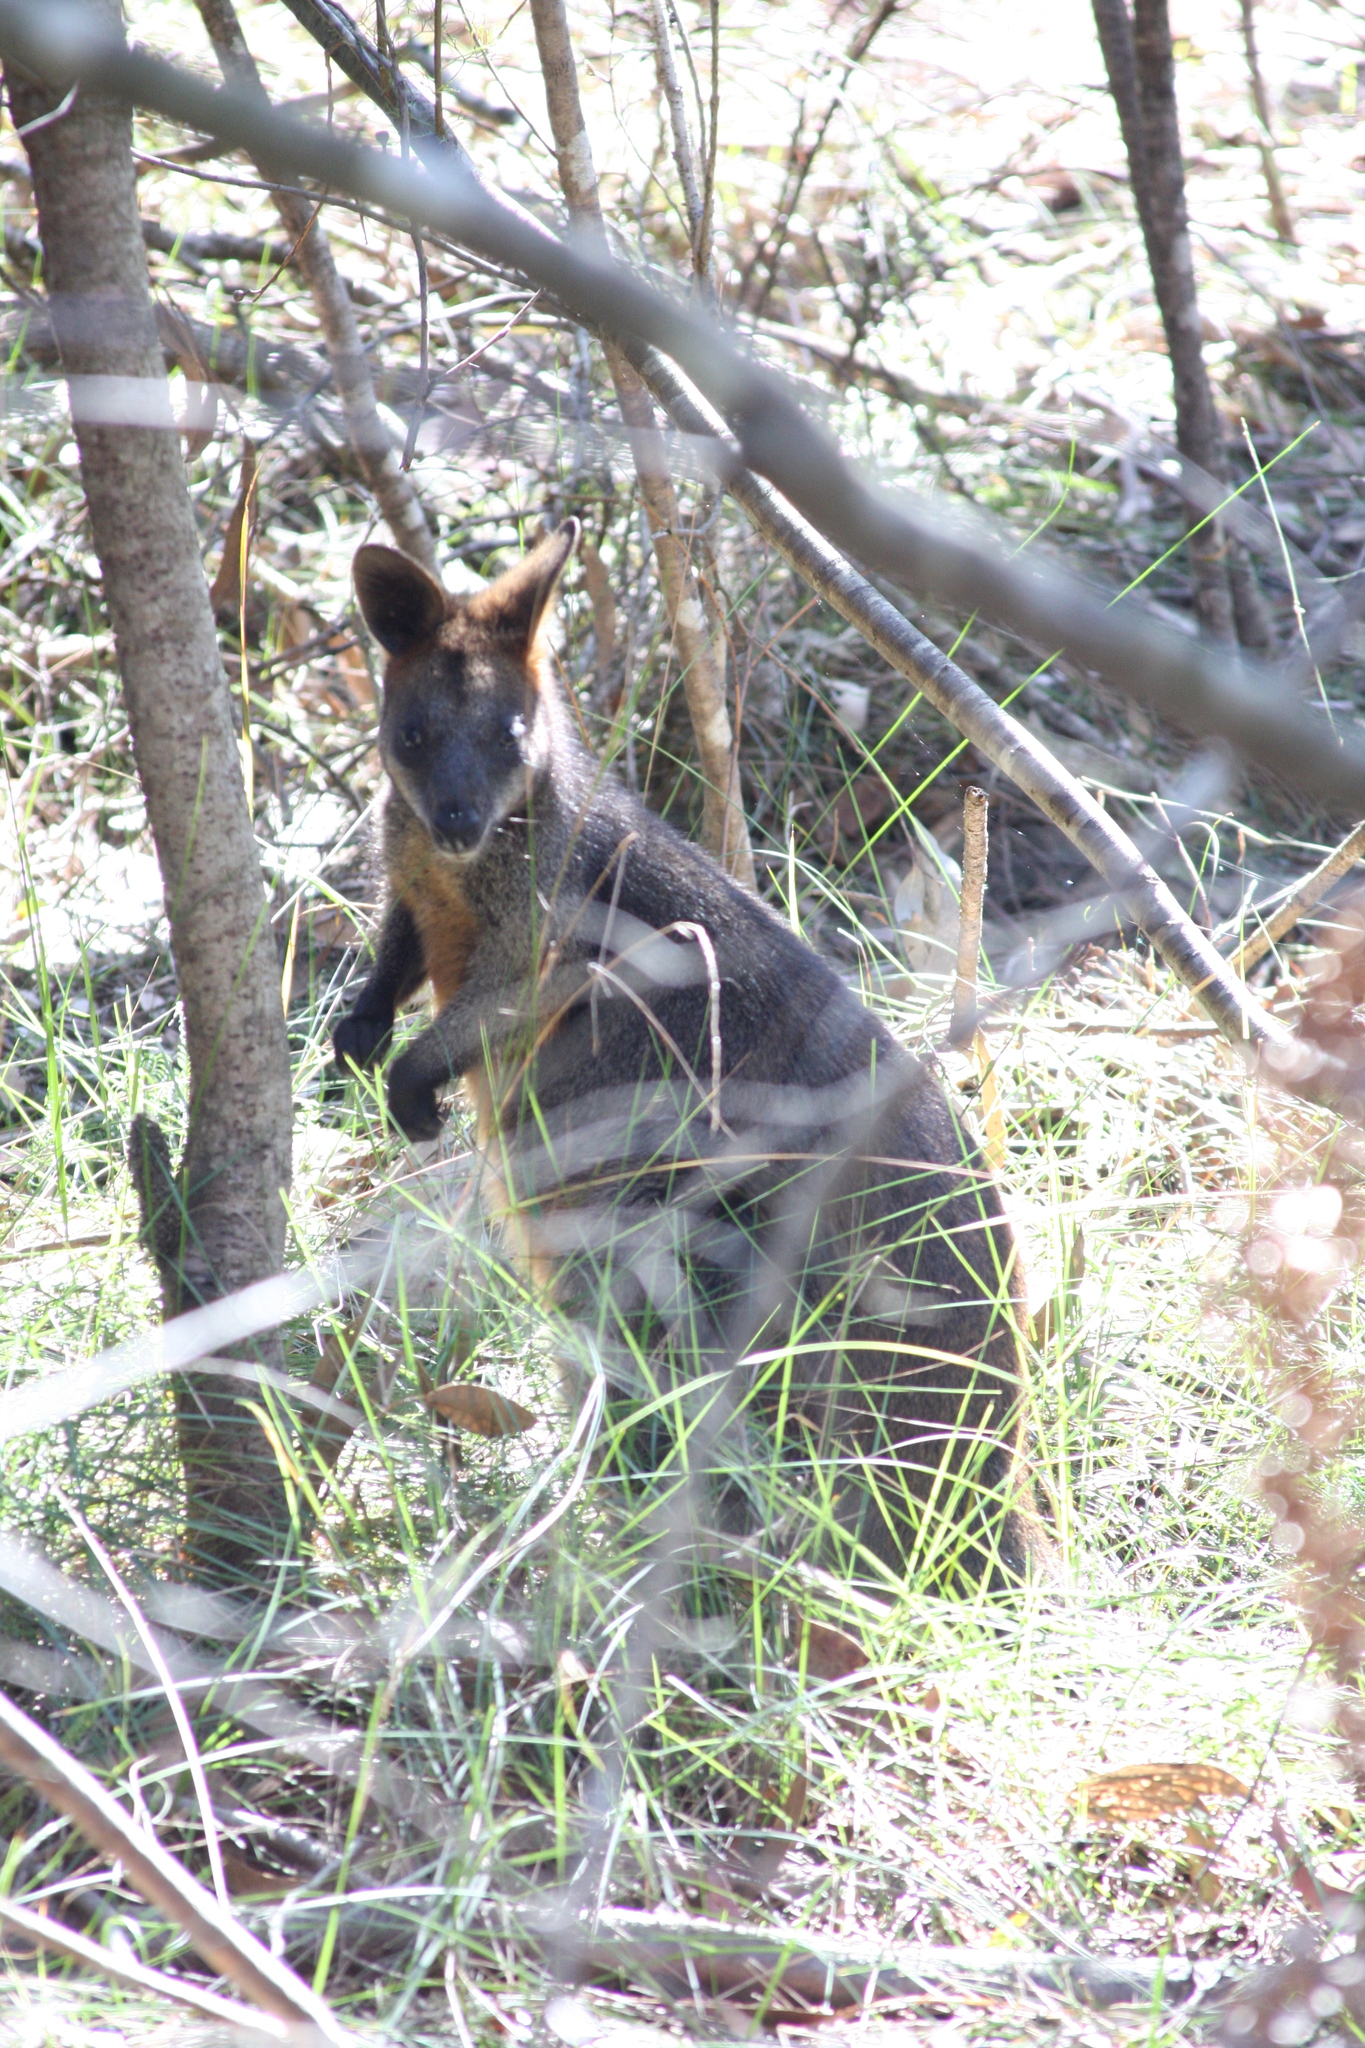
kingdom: Animalia
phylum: Chordata
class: Mammalia
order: Diprotodontia
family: Macropodidae
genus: Wallabia
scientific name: Wallabia bicolor
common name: Swamp wallaby
